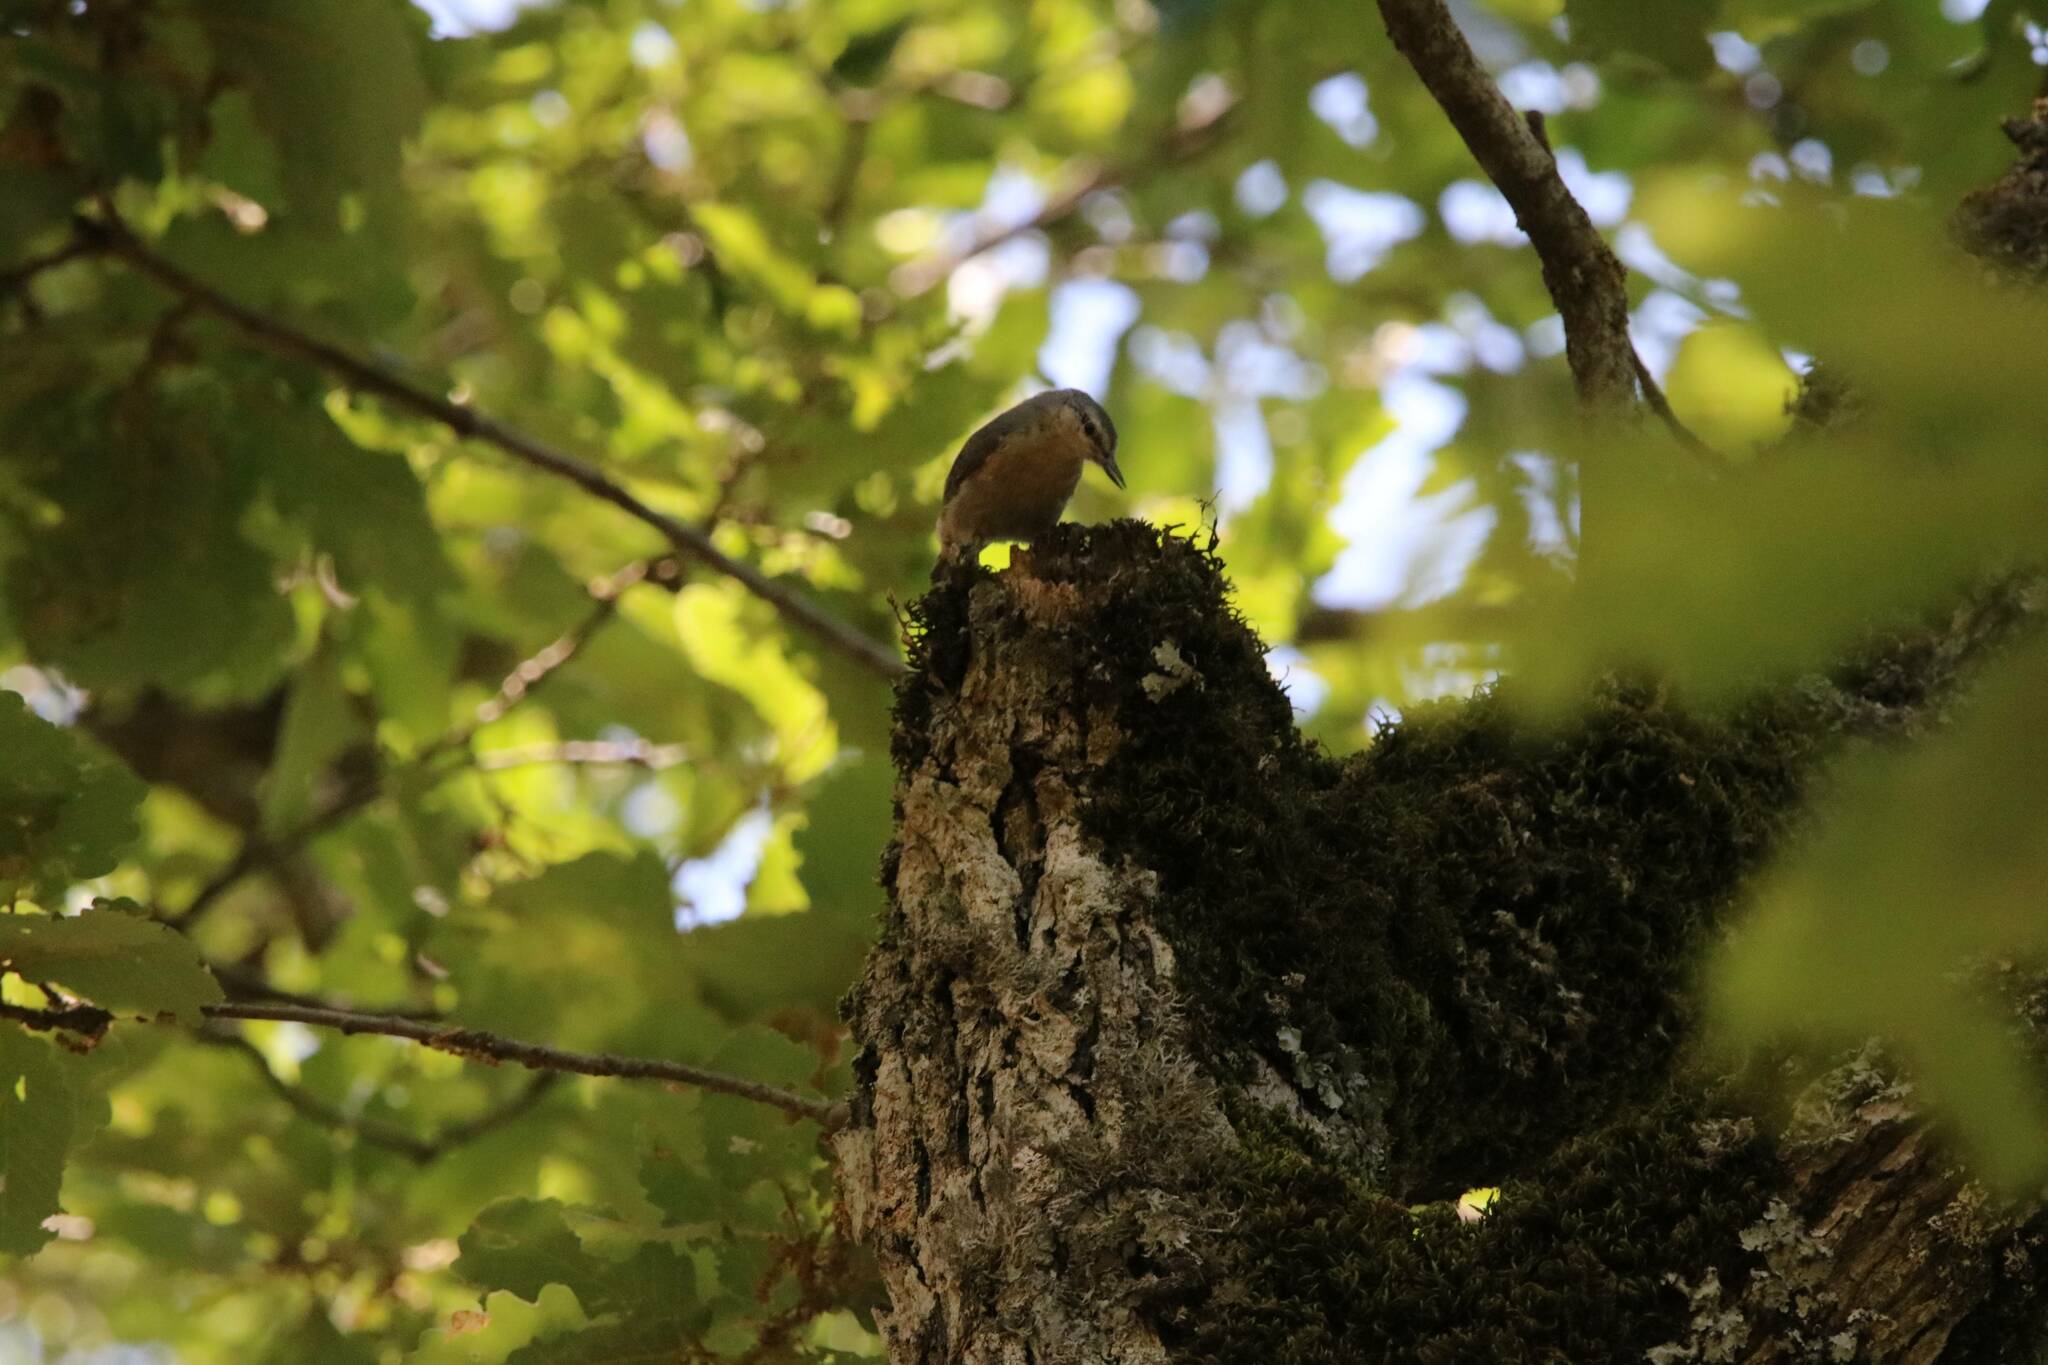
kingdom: Animalia
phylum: Chordata
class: Aves
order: Passeriformes
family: Sittidae
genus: Sitta
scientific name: Sitta ledanti
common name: Algerian nuthatch
